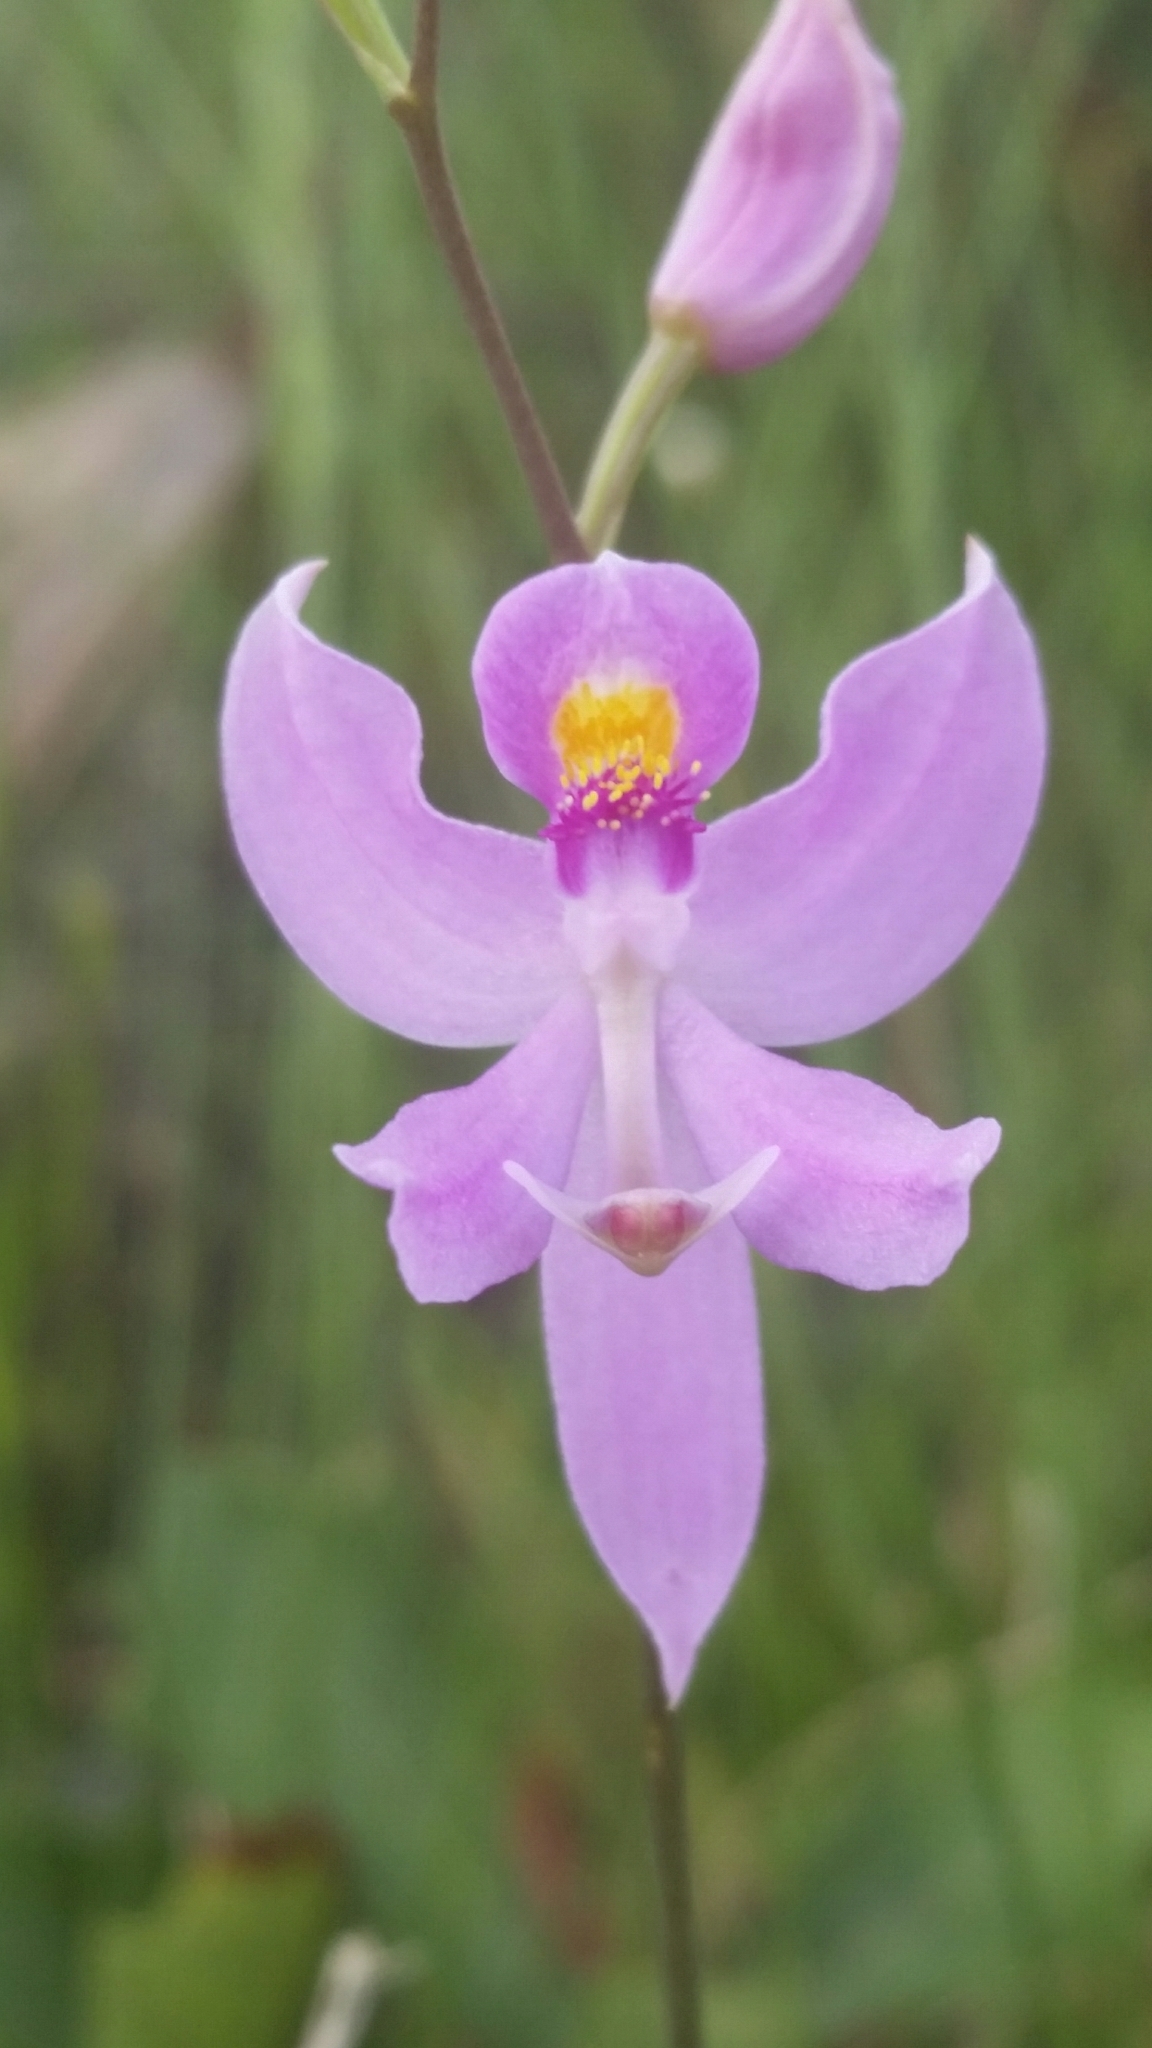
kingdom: Plantae
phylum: Tracheophyta
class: Liliopsida
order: Asparagales
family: Orchidaceae
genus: Calopogon
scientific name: Calopogon pallidus
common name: Pale grasspink
